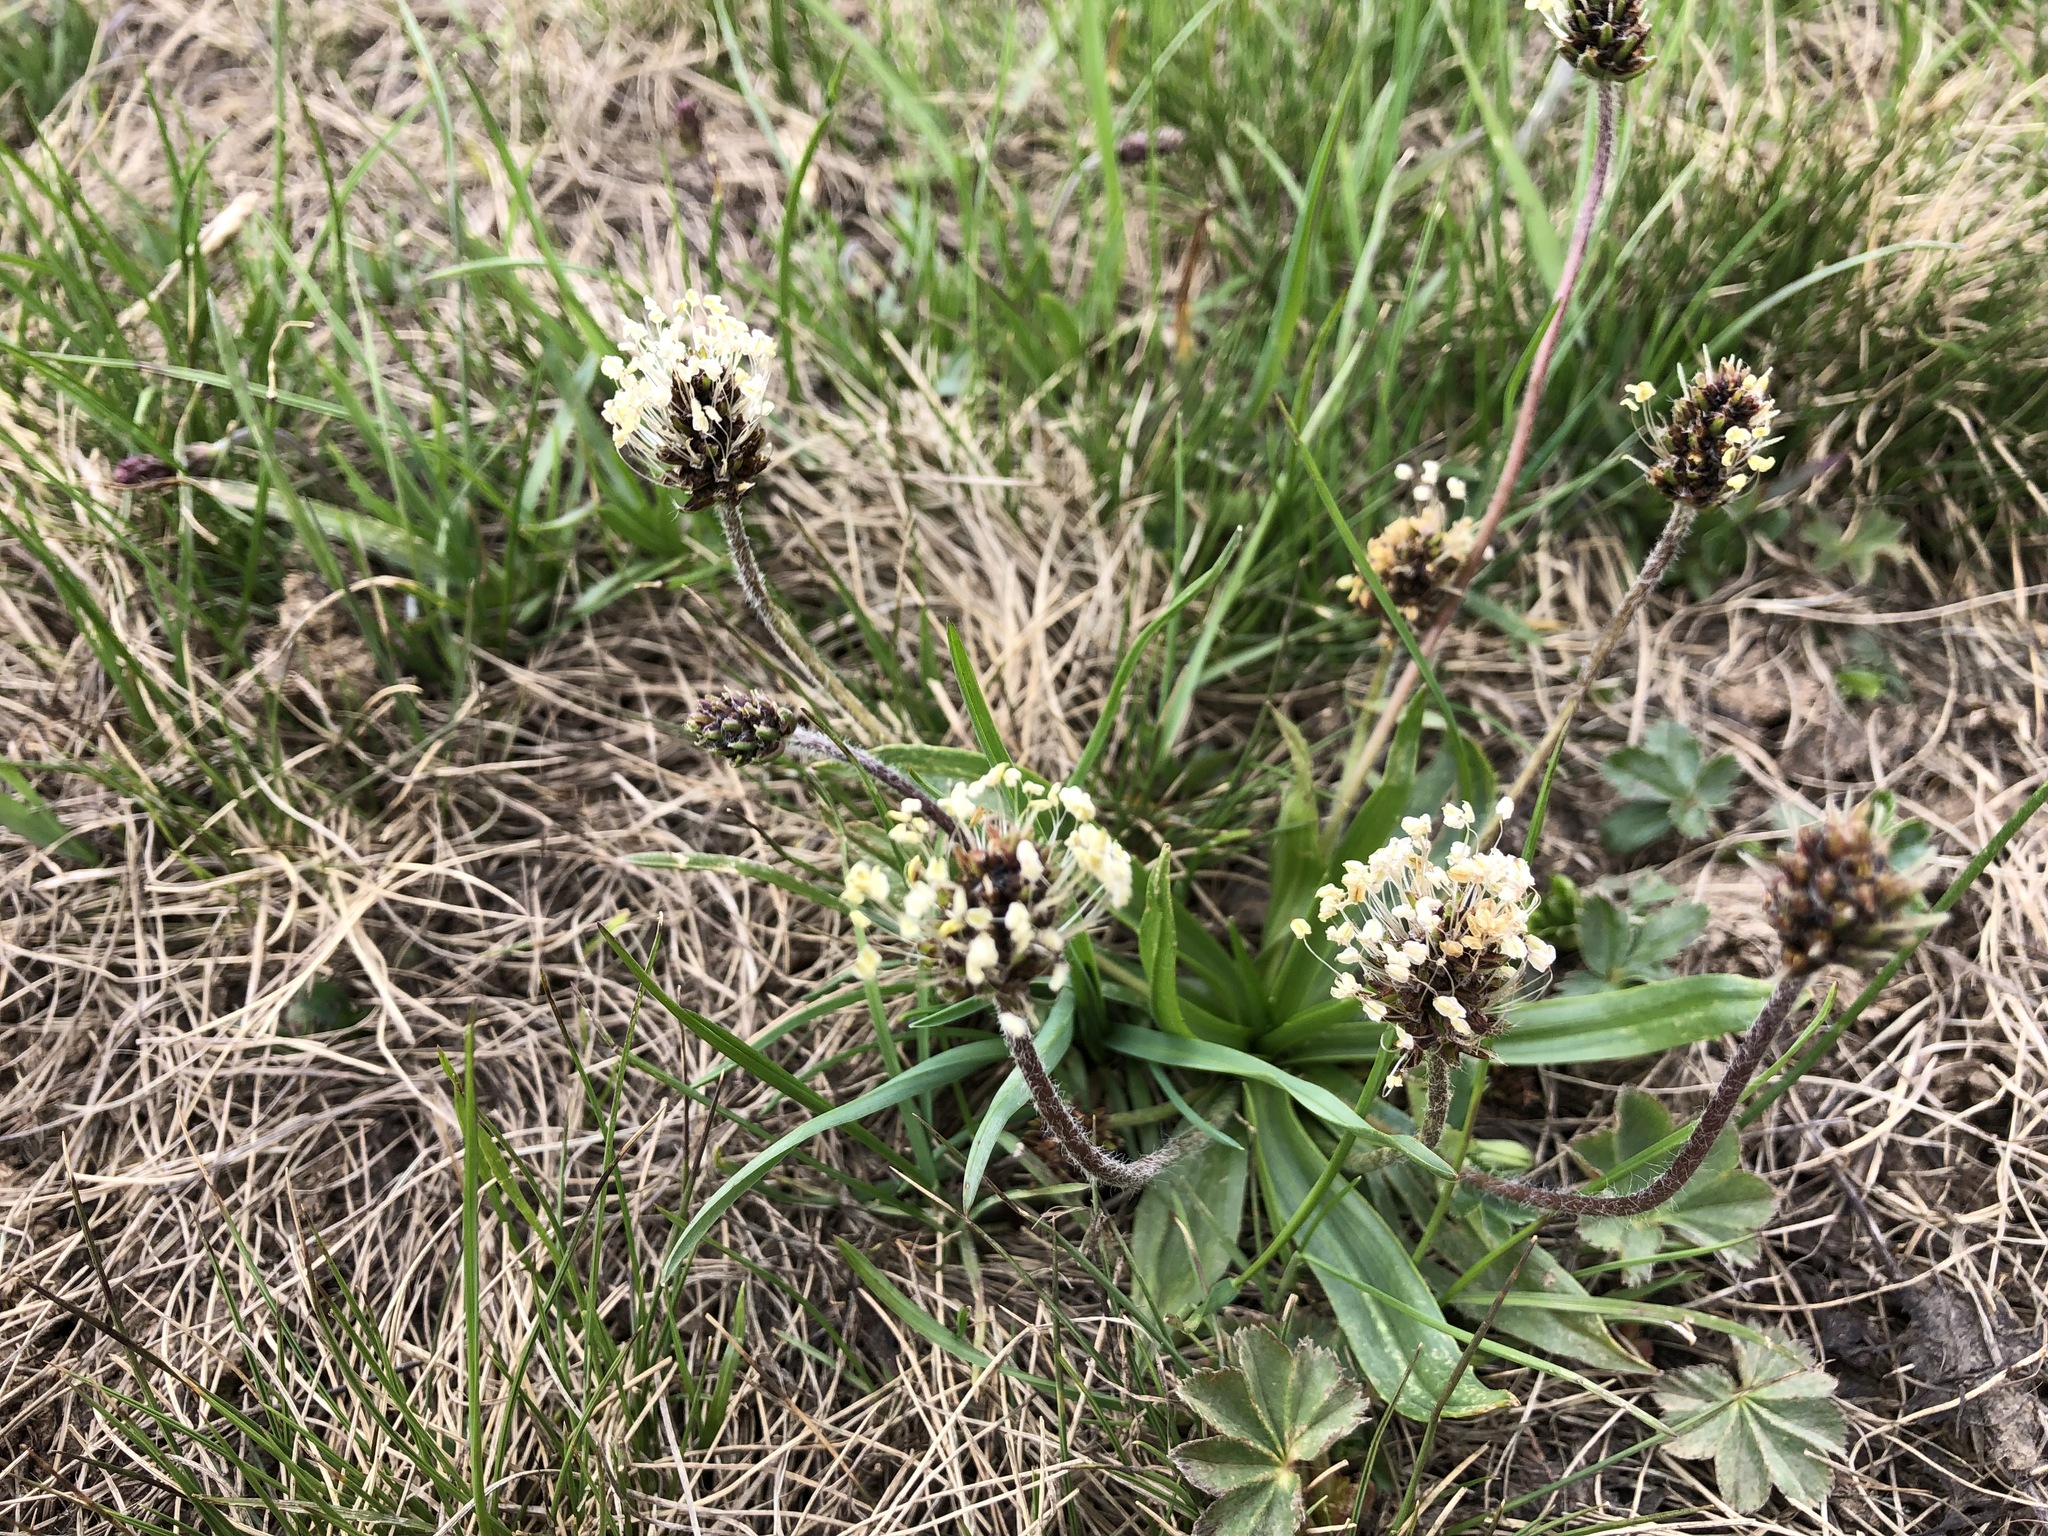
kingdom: Plantae
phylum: Tracheophyta
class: Magnoliopsida
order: Lamiales
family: Plantaginaceae
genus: Plantago
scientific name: Plantago alpina
